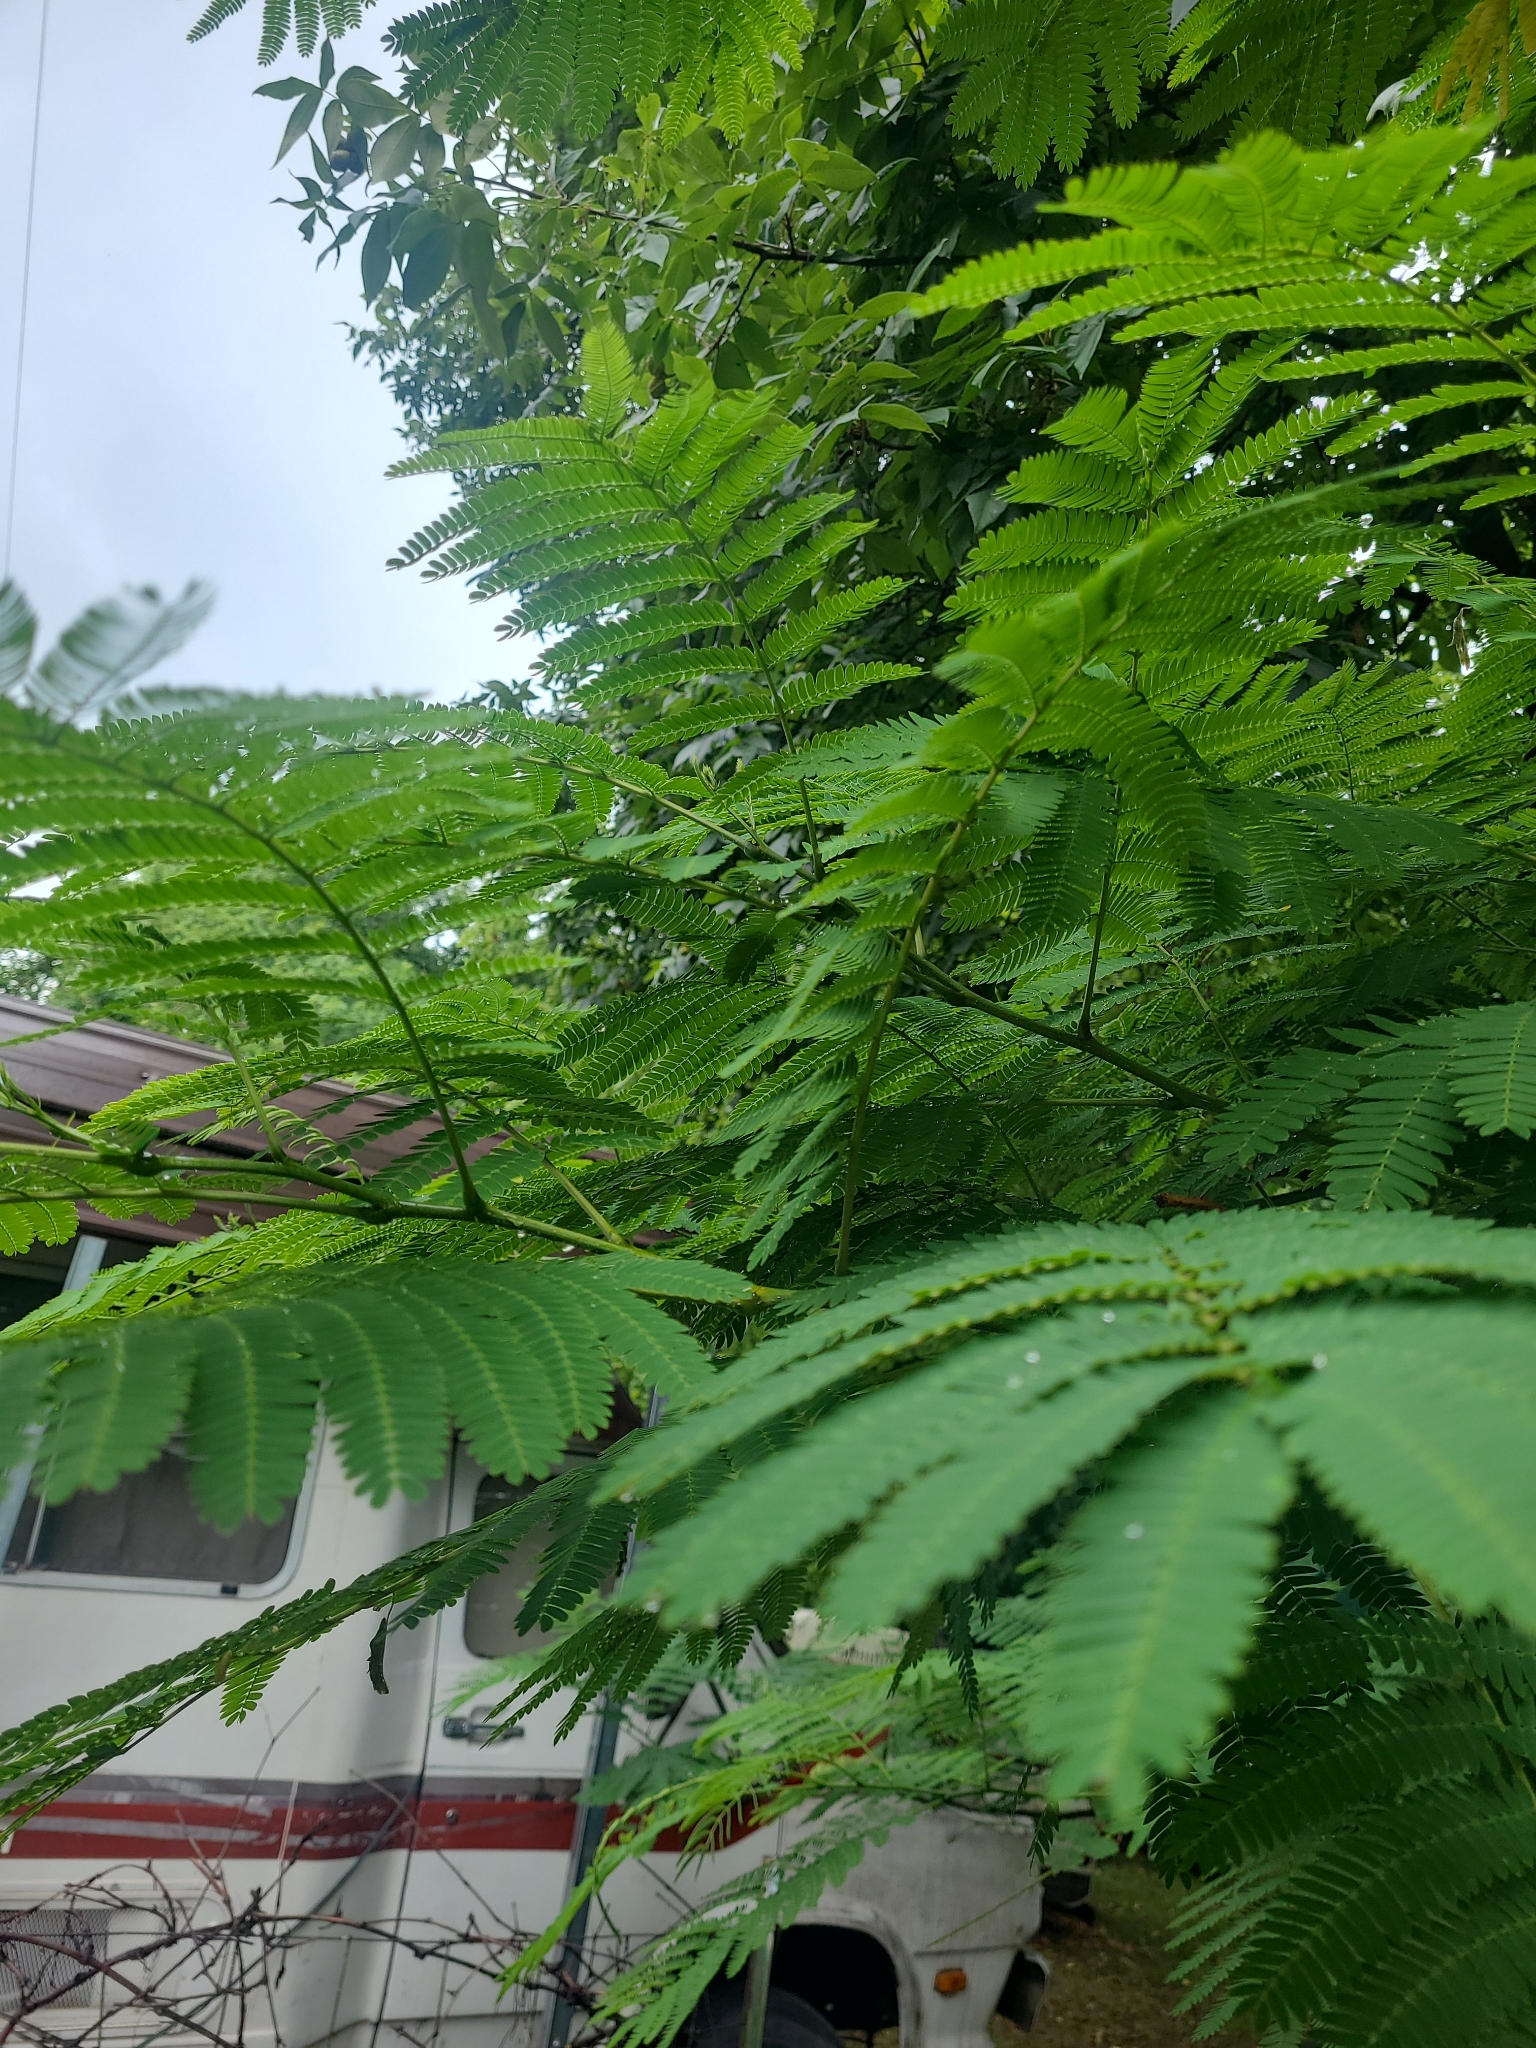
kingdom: Plantae
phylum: Tracheophyta
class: Magnoliopsida
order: Fabales
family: Fabaceae
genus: Albizia
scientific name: Albizia julibrissin
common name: Silktree
